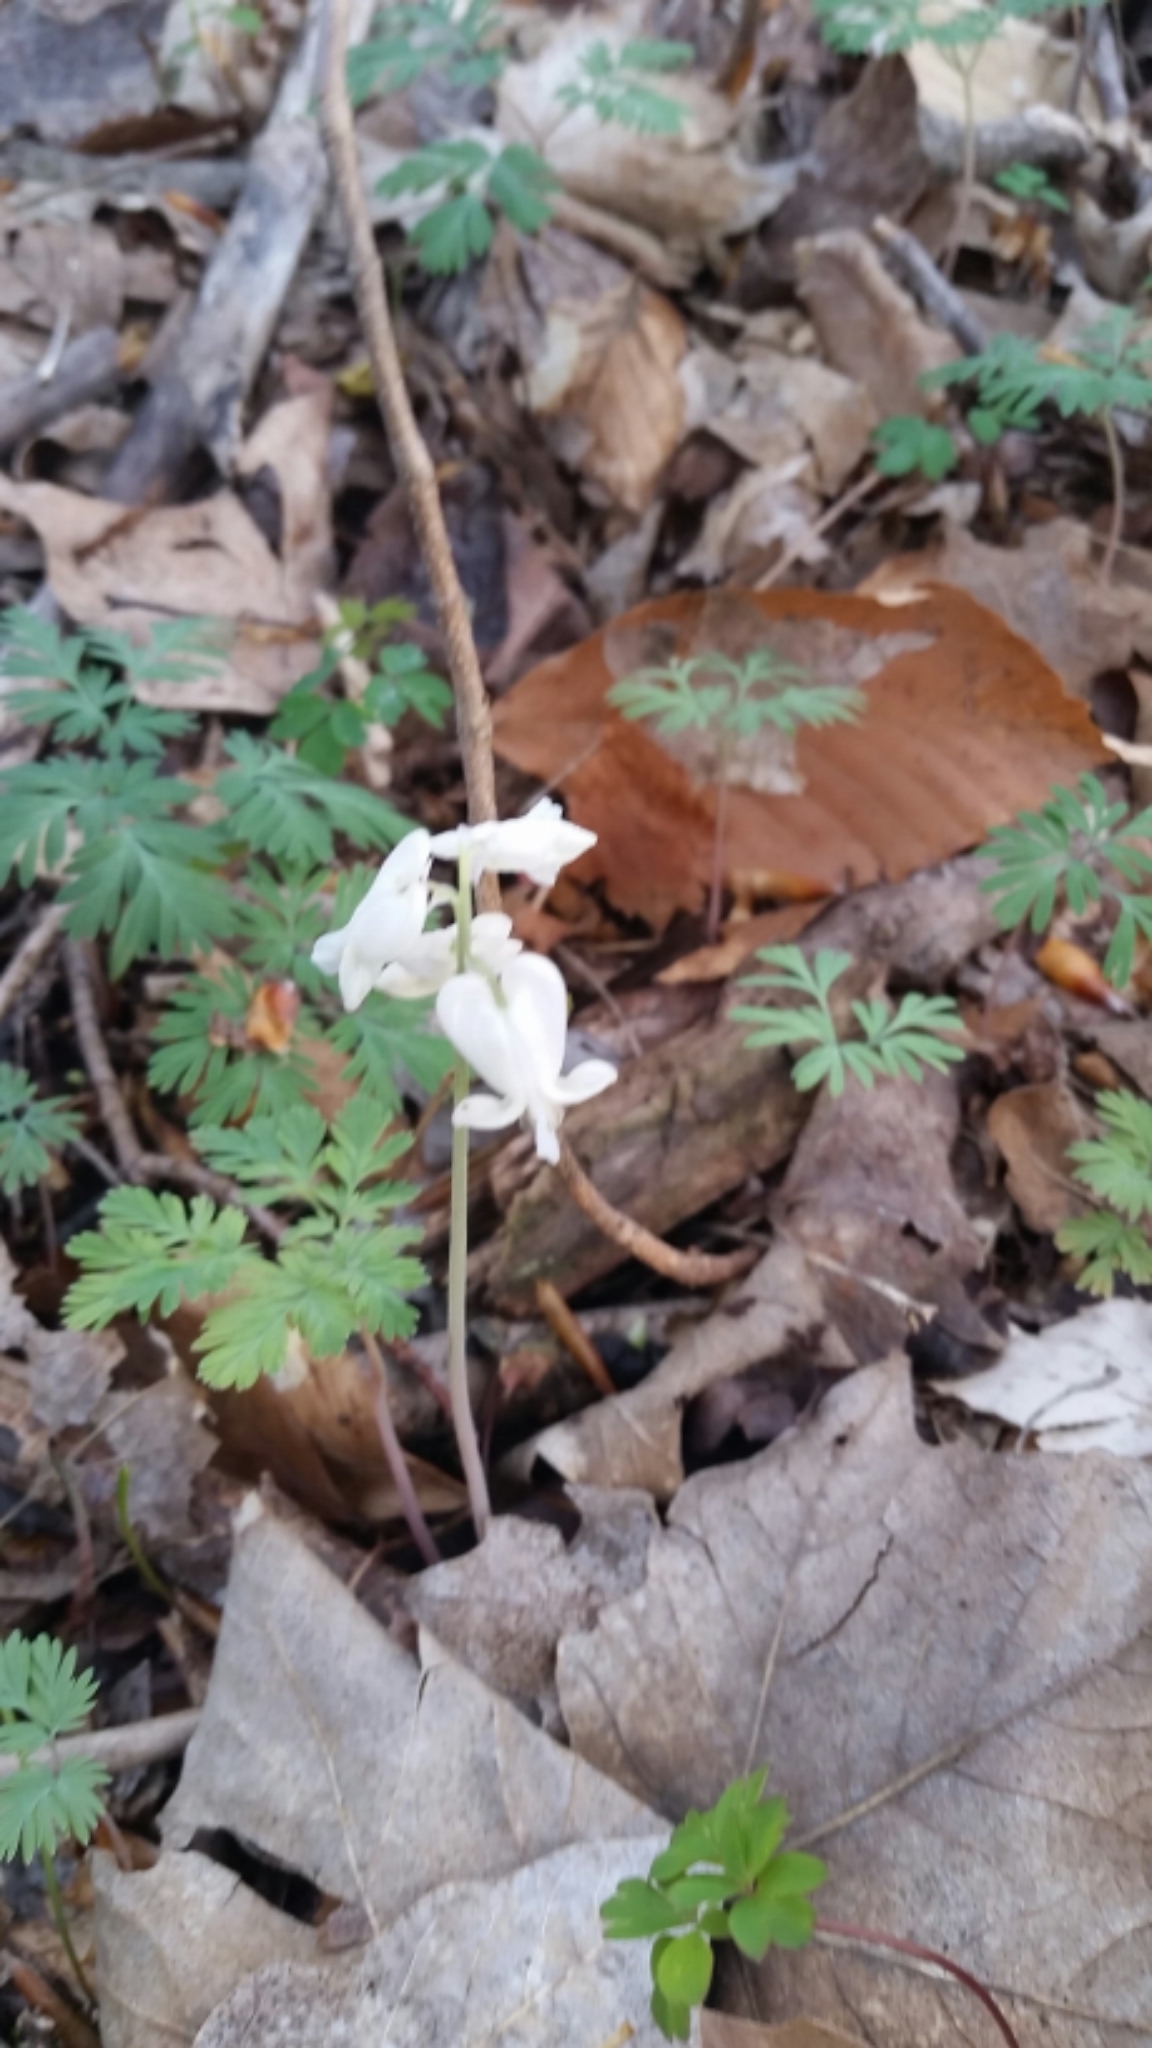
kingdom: Plantae
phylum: Tracheophyta
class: Magnoliopsida
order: Ranunculales
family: Papaveraceae
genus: Dicentra
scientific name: Dicentra canadensis
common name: Squirrel-corn
